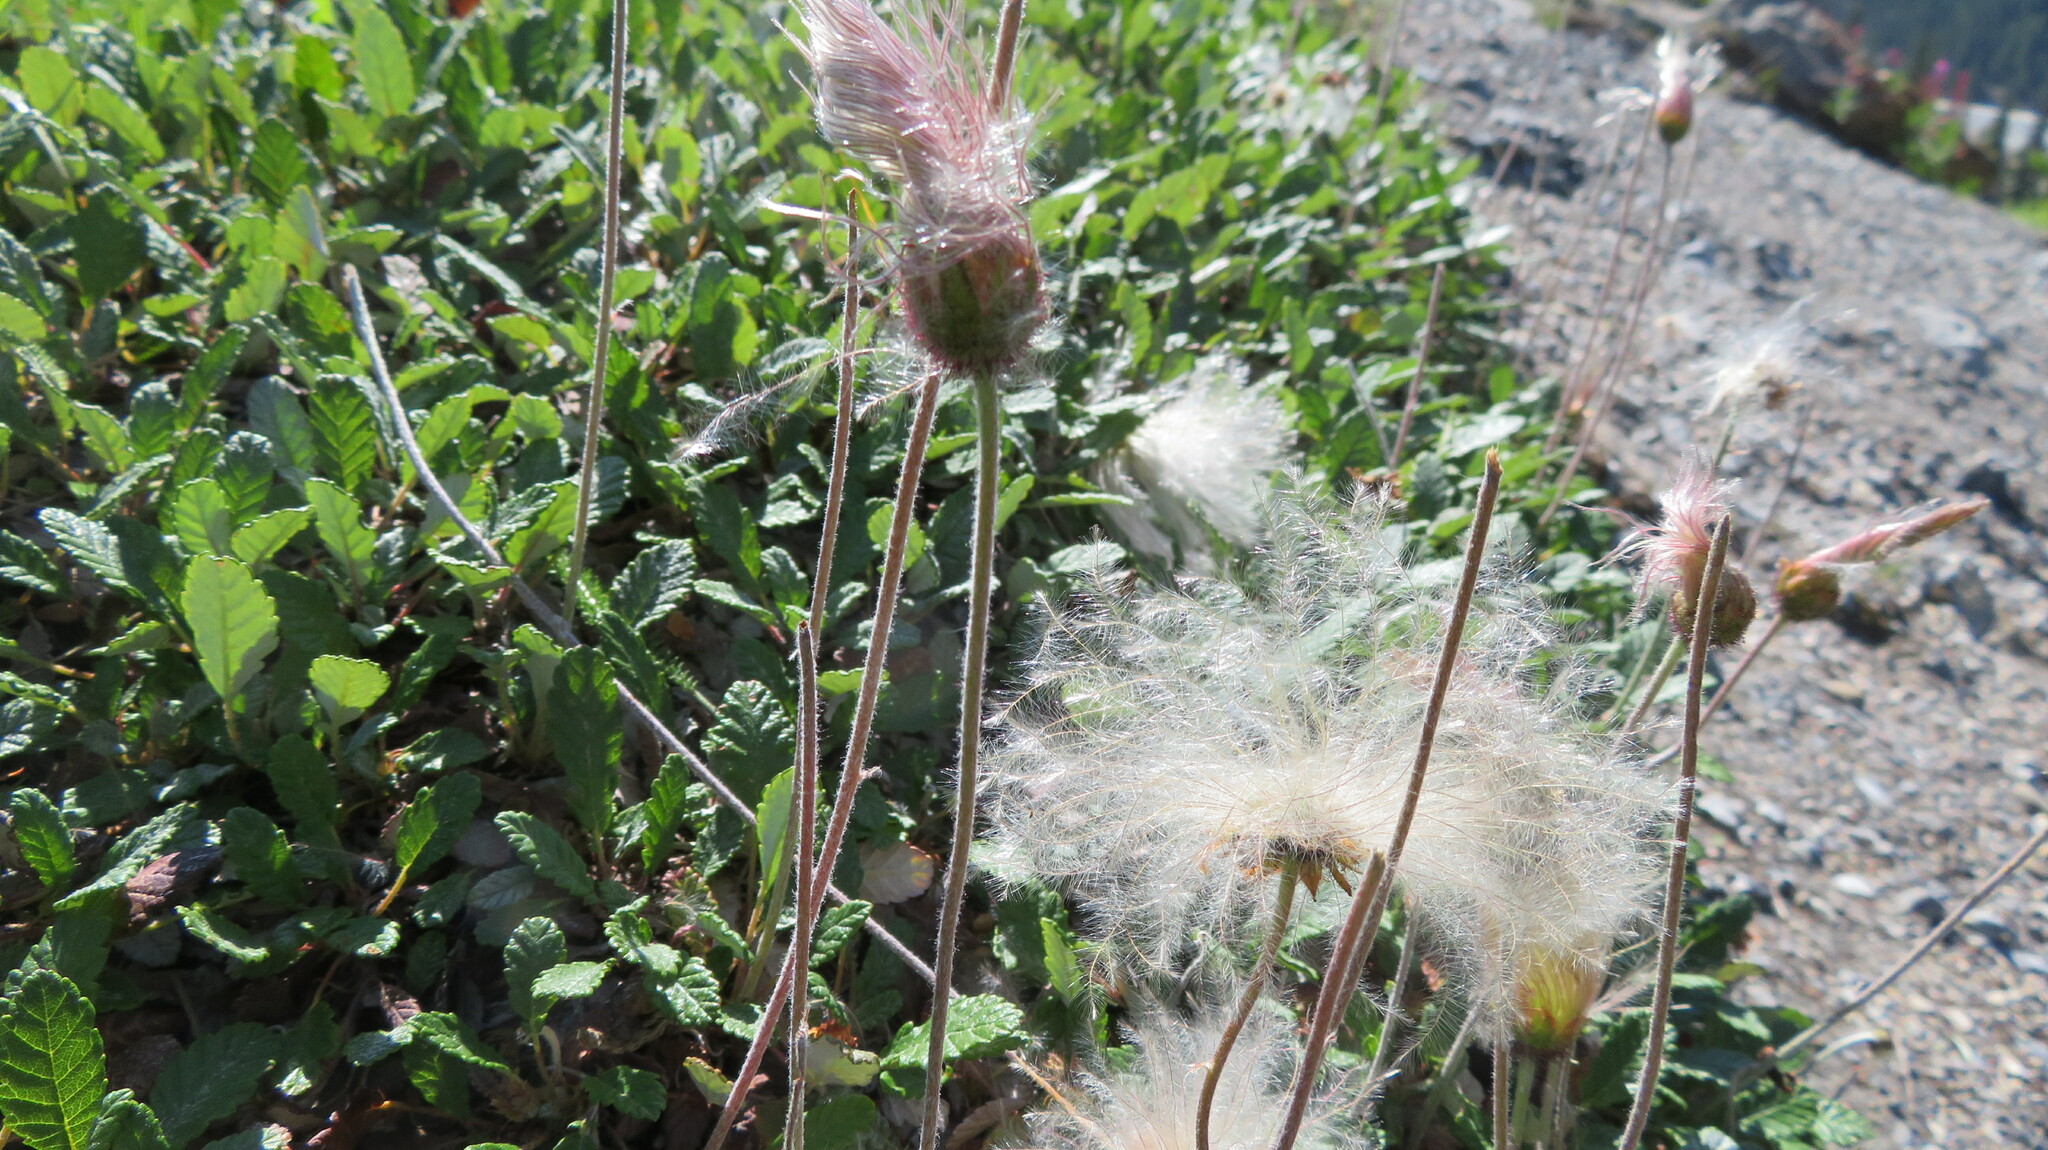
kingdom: Plantae
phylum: Tracheophyta
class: Magnoliopsida
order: Rosales
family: Rosaceae
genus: Dryas
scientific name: Dryas drummondii
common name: Drummond's dryad
